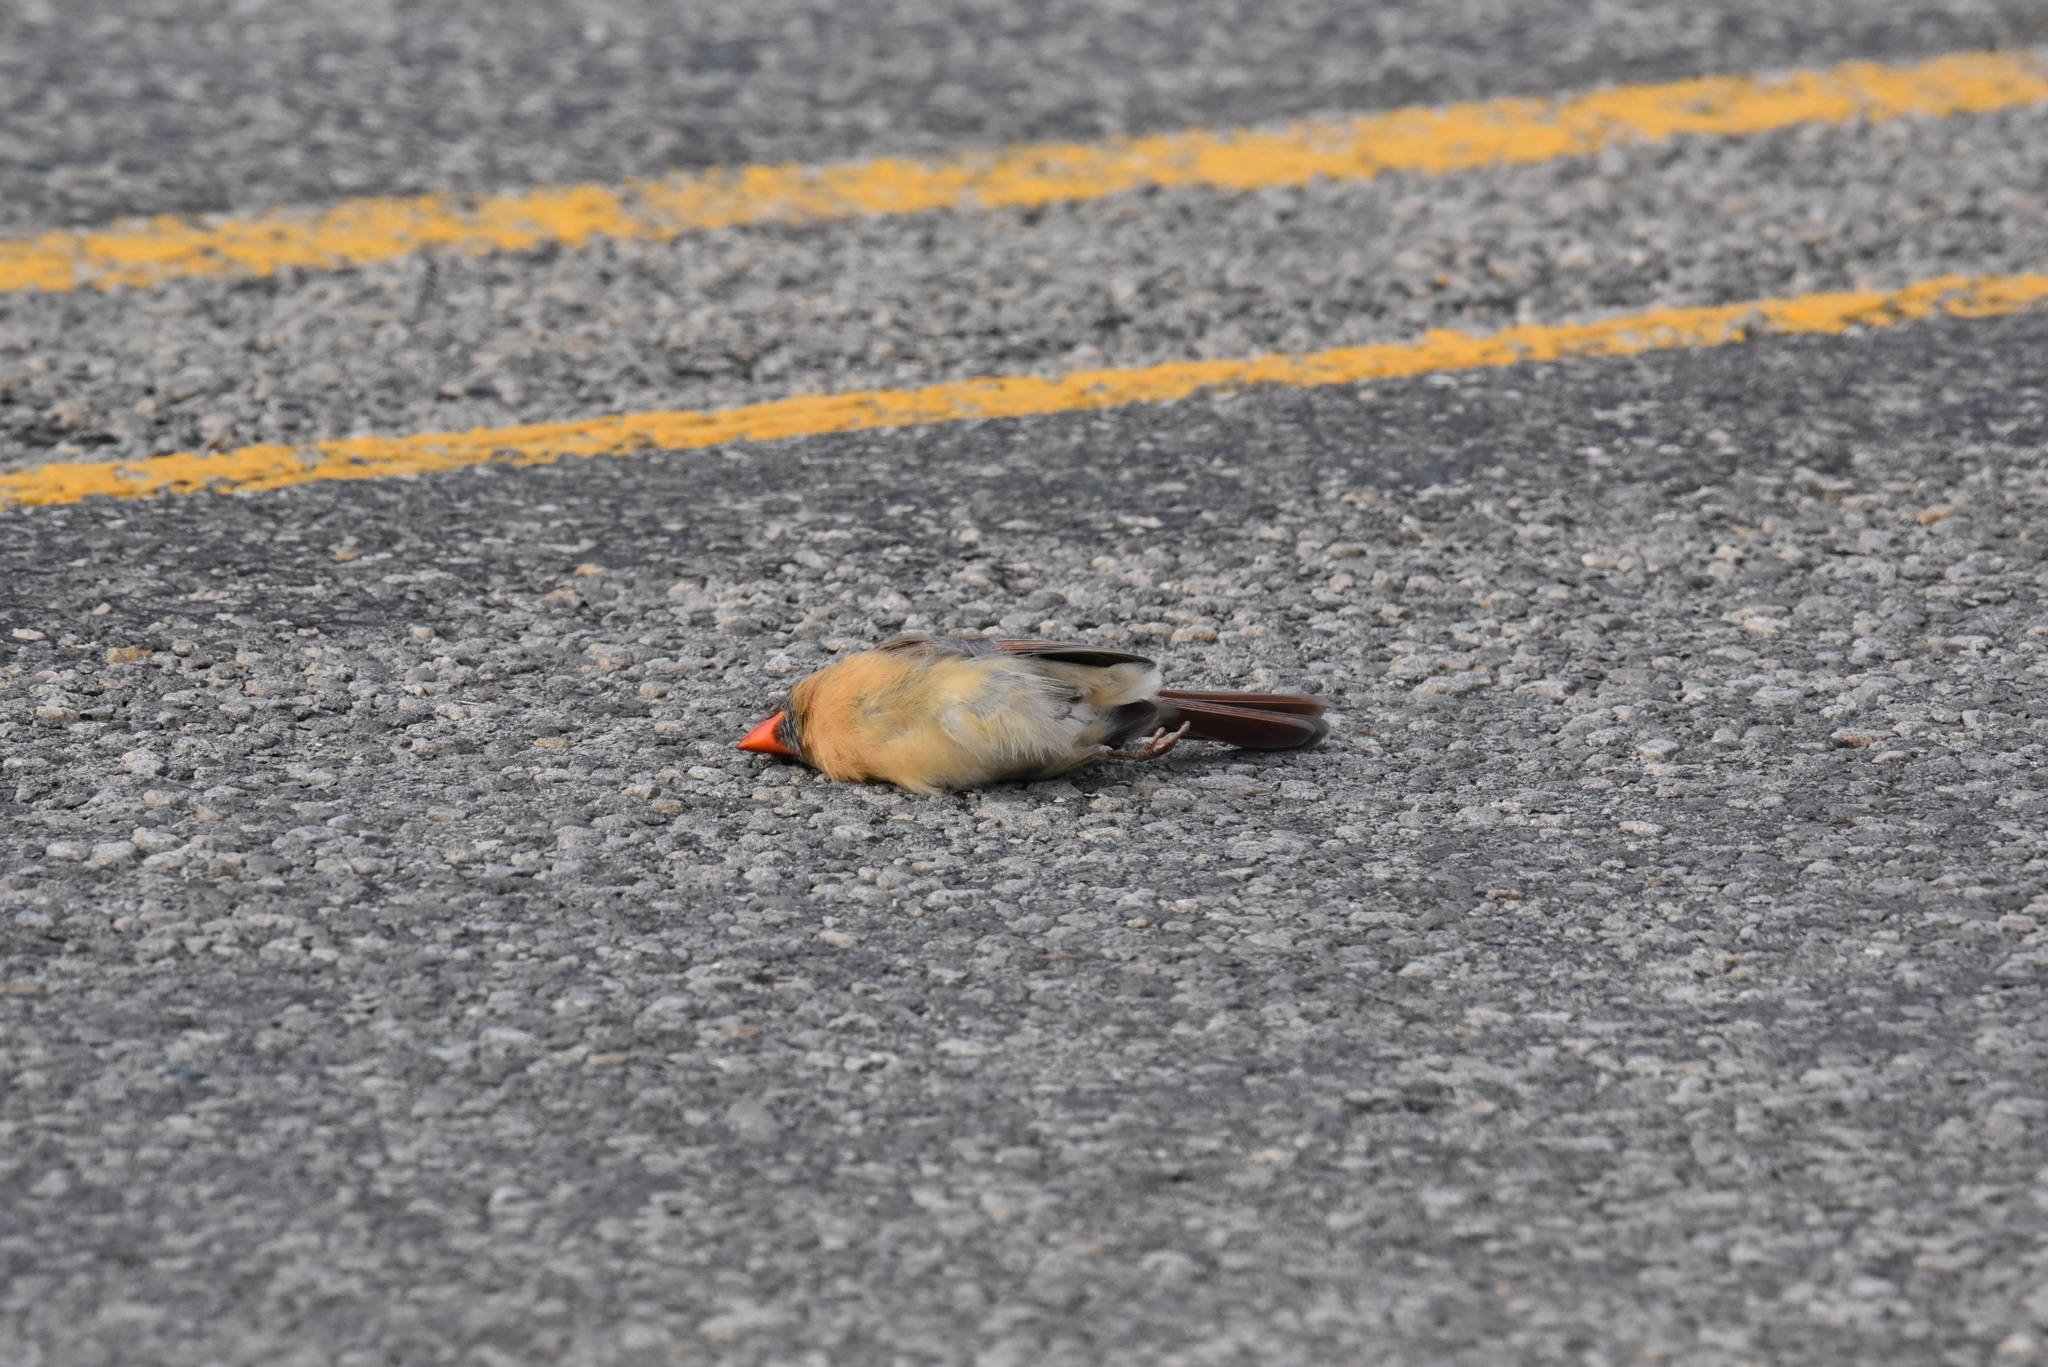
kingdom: Animalia
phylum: Chordata
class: Aves
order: Passeriformes
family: Cardinalidae
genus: Cardinalis
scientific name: Cardinalis cardinalis
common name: Northern cardinal
